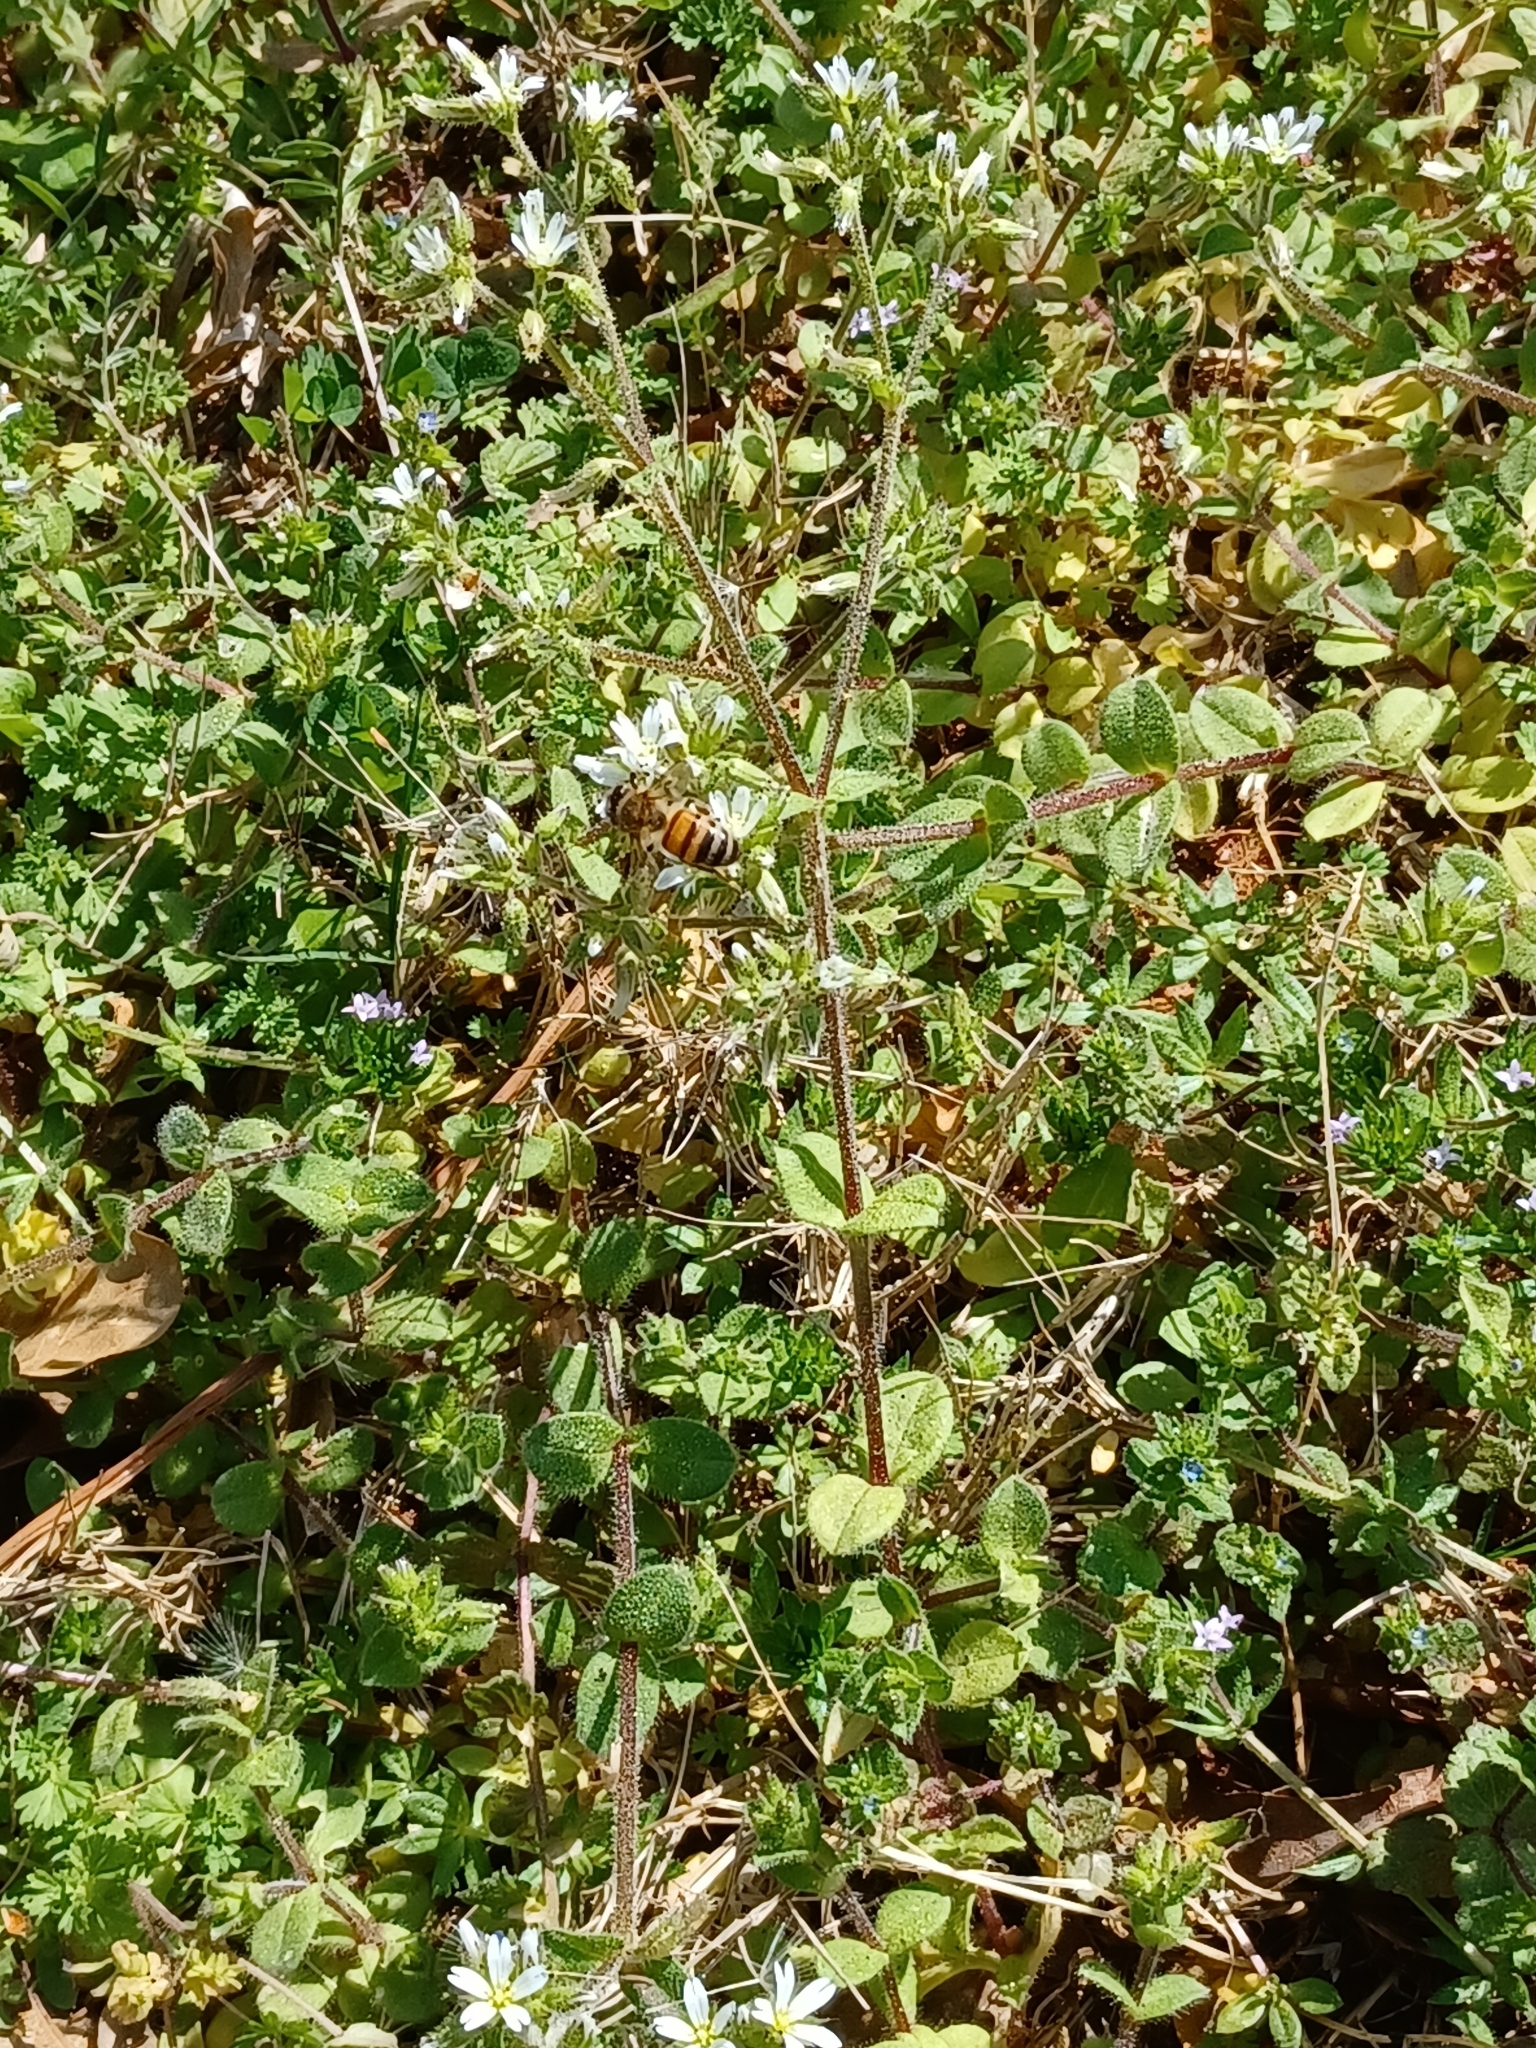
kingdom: Animalia
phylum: Arthropoda
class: Insecta
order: Hymenoptera
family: Apidae
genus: Apis
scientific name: Apis mellifera
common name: Honey bee
